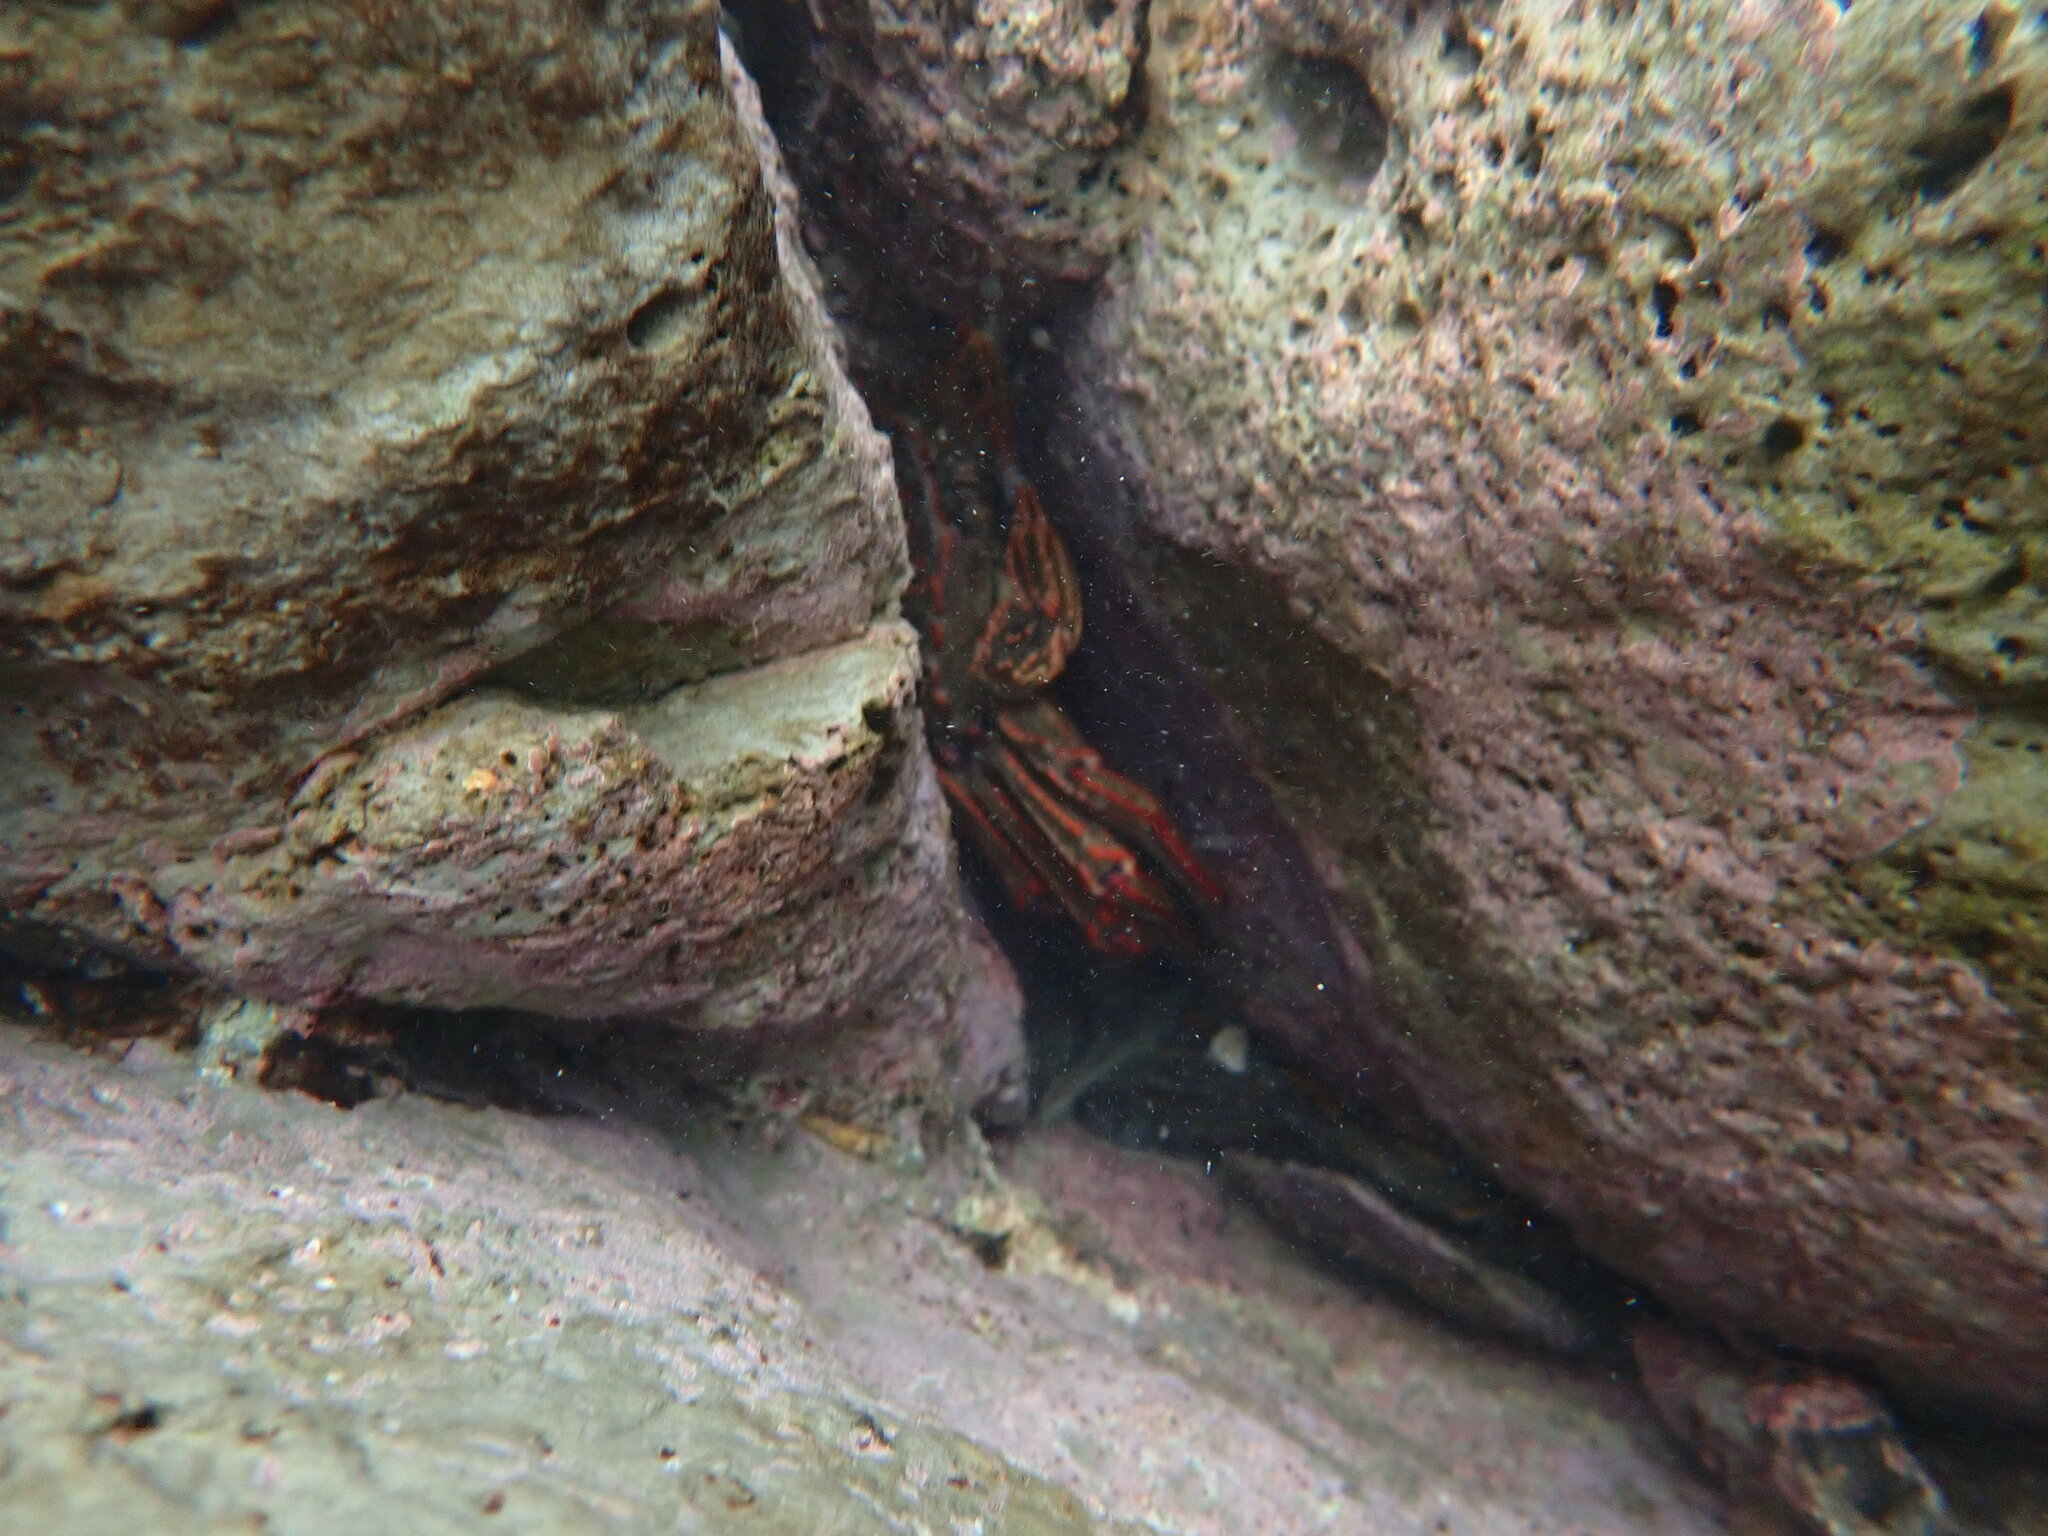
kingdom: Animalia
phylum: Arthropoda
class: Malacostraca
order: Decapoda
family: Plagusiidae
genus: Guinusia
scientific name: Guinusia chabrus
